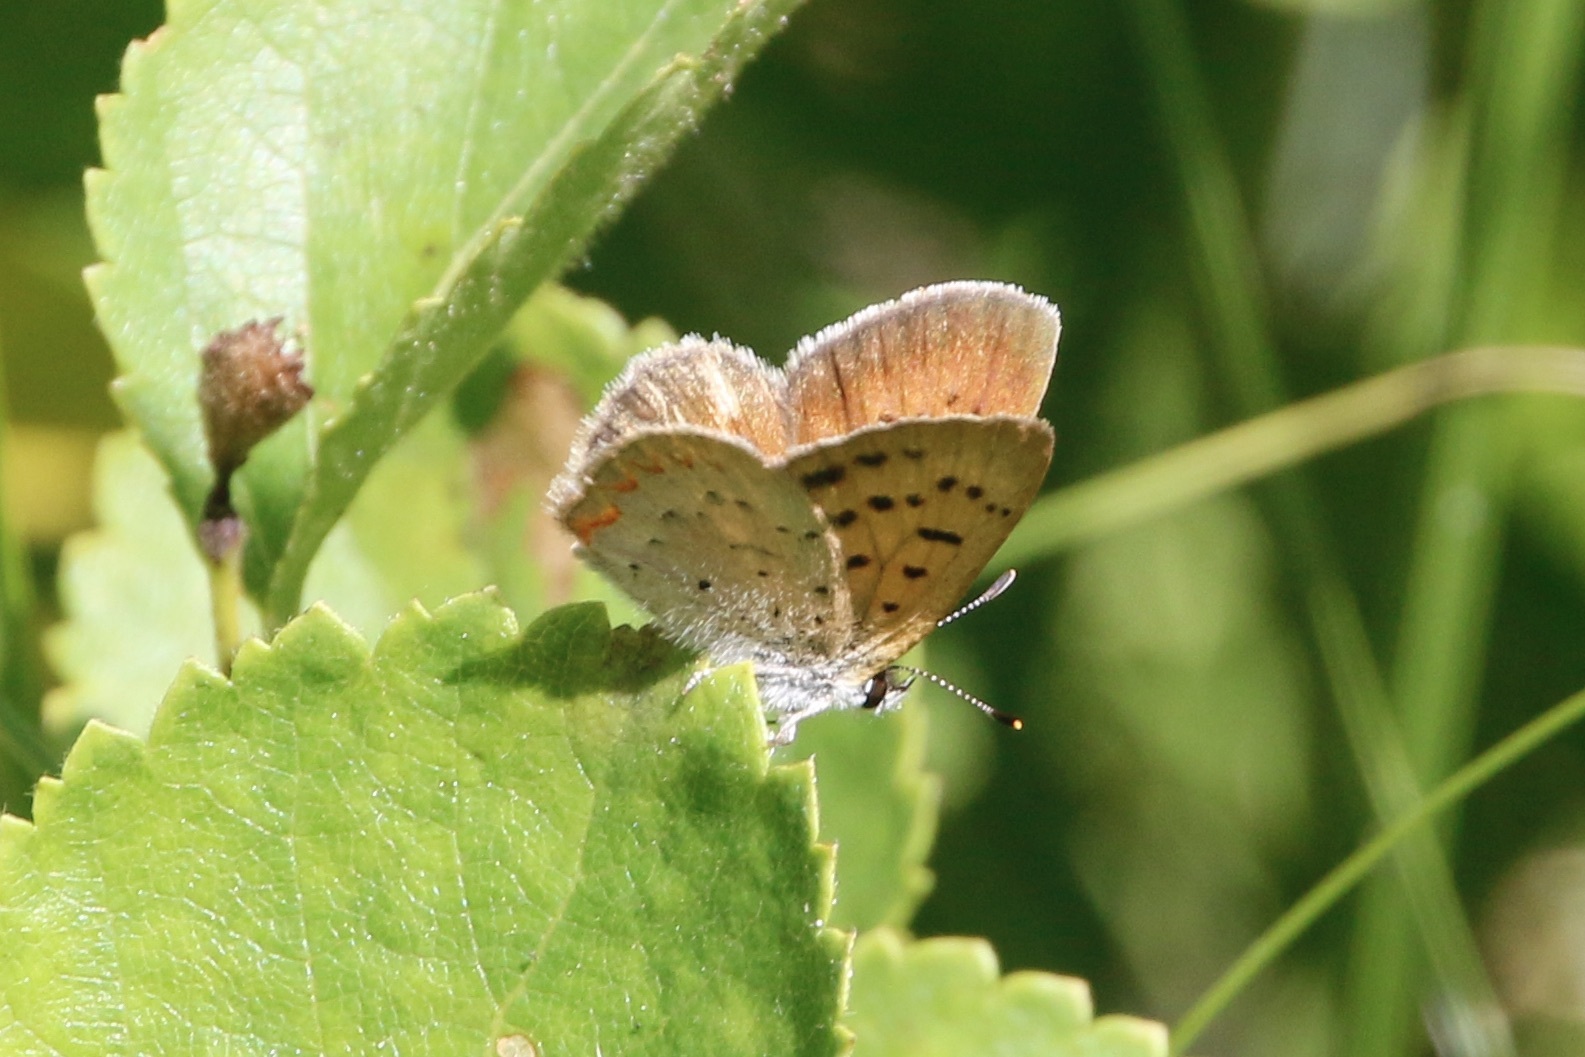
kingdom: Animalia
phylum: Arthropoda
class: Insecta
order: Lepidoptera
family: Lycaenidae
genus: Tharsalea
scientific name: Tharsalea dorcas
